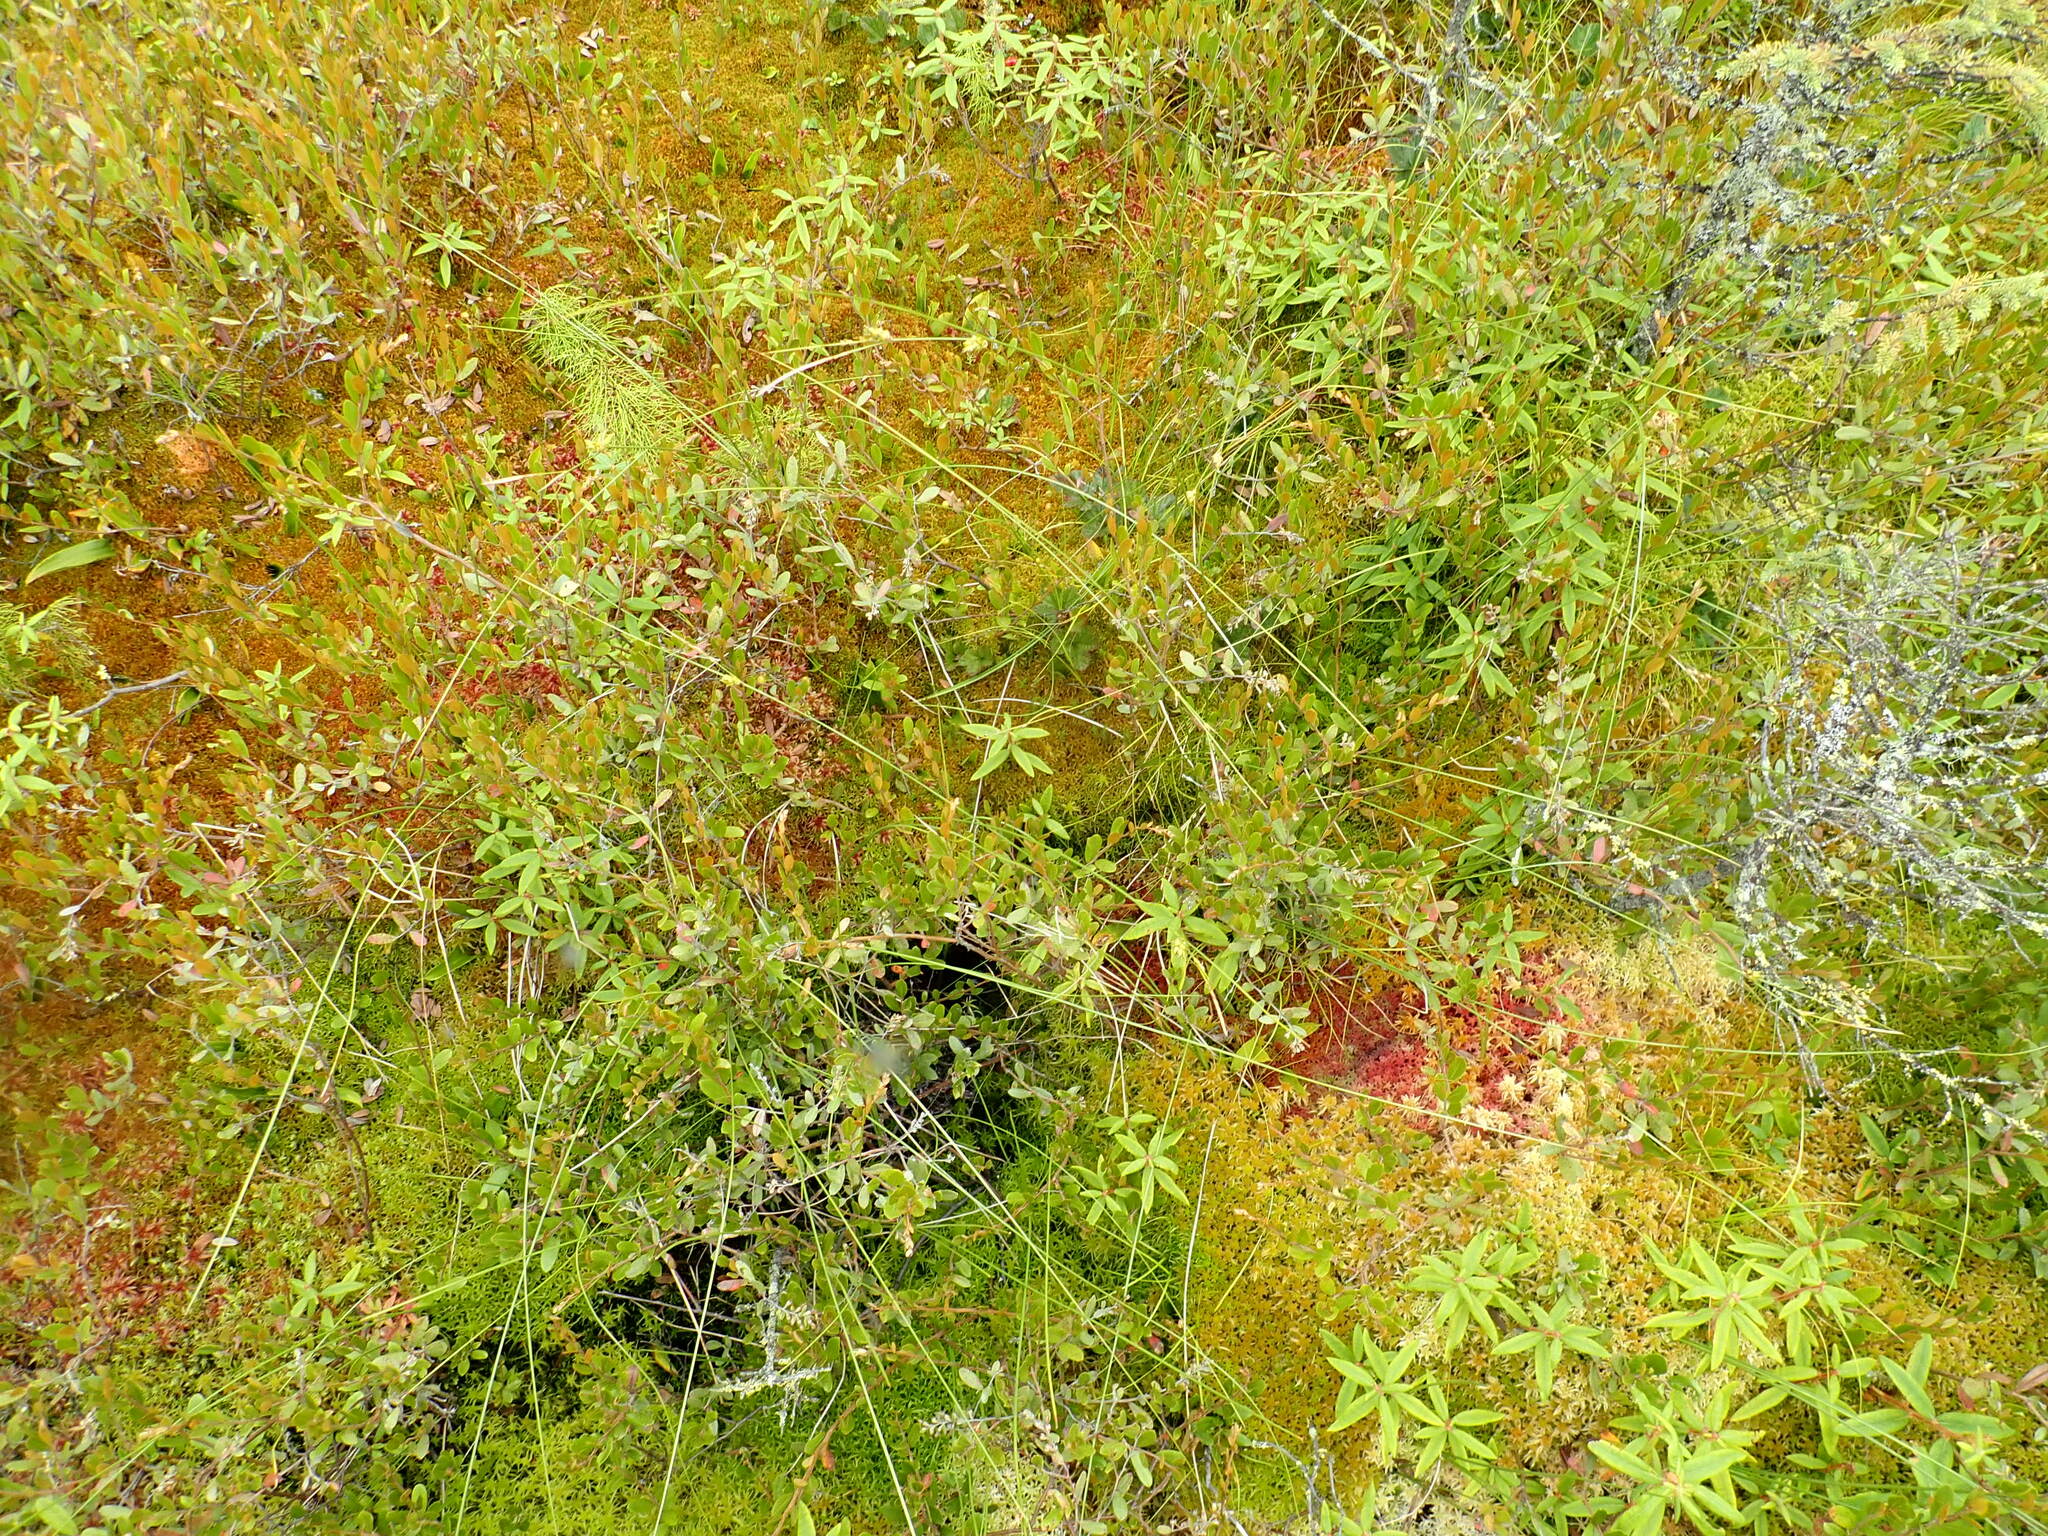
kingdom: Plantae
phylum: Tracheophyta
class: Liliopsida
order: Poales
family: Cyperaceae
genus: Carex
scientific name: Carex oligosperma
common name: Few-seed sedge
